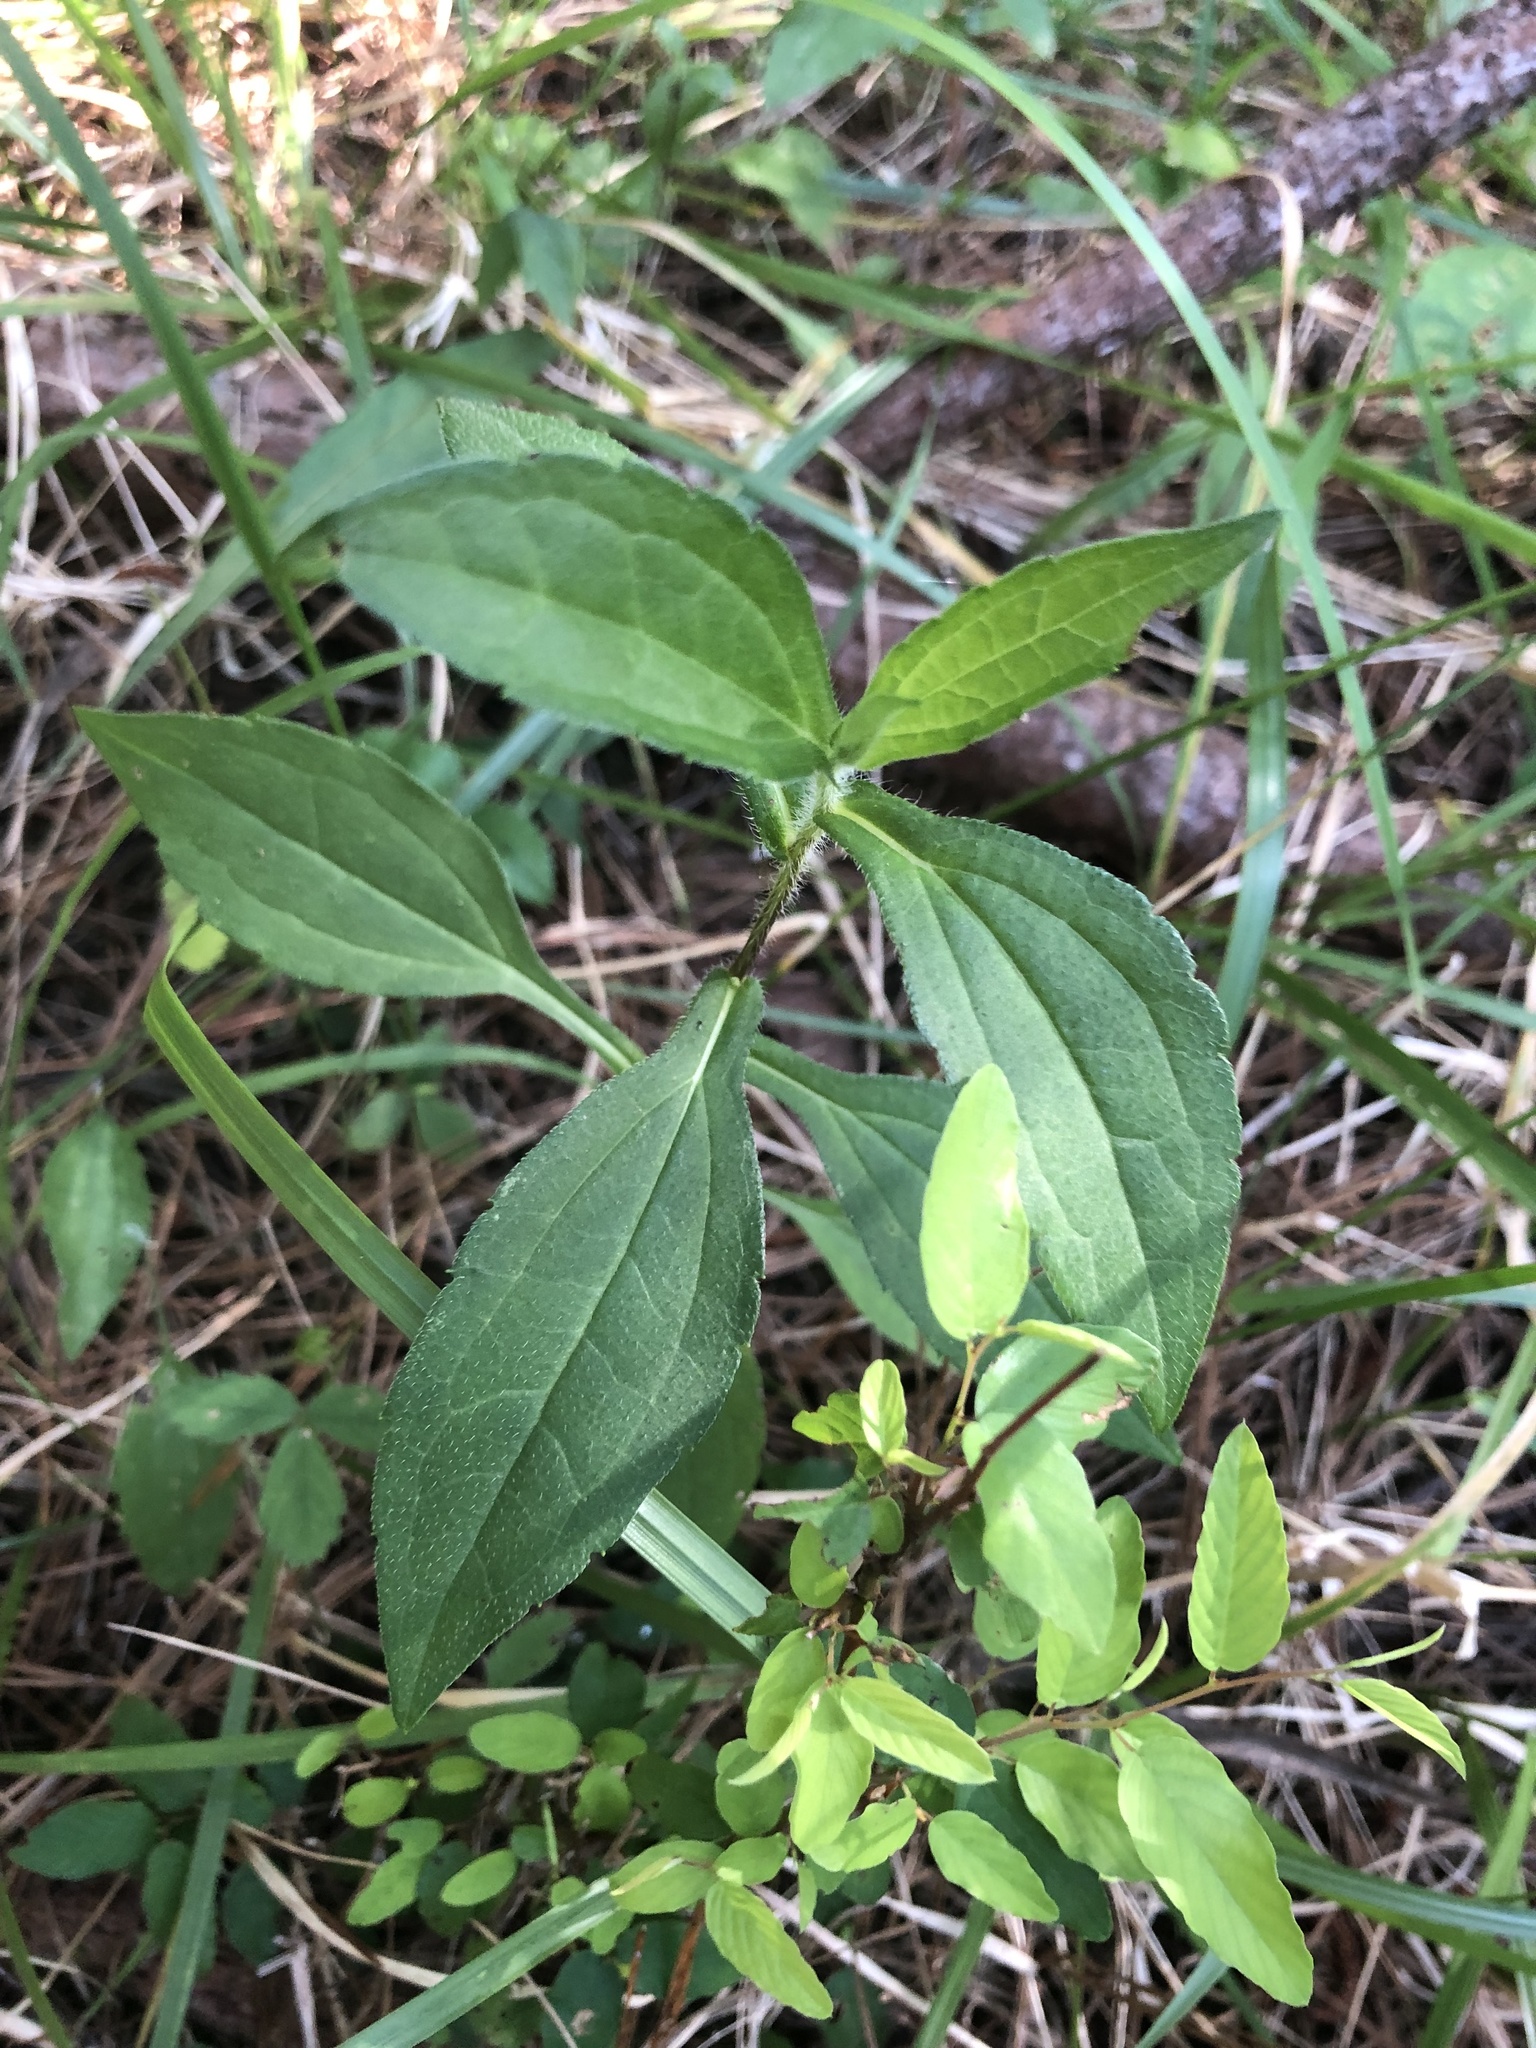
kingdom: Plantae
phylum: Tracheophyta
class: Magnoliopsida
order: Asterales
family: Asteraceae
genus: Rudbeckia
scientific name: Rudbeckia terranigrae
